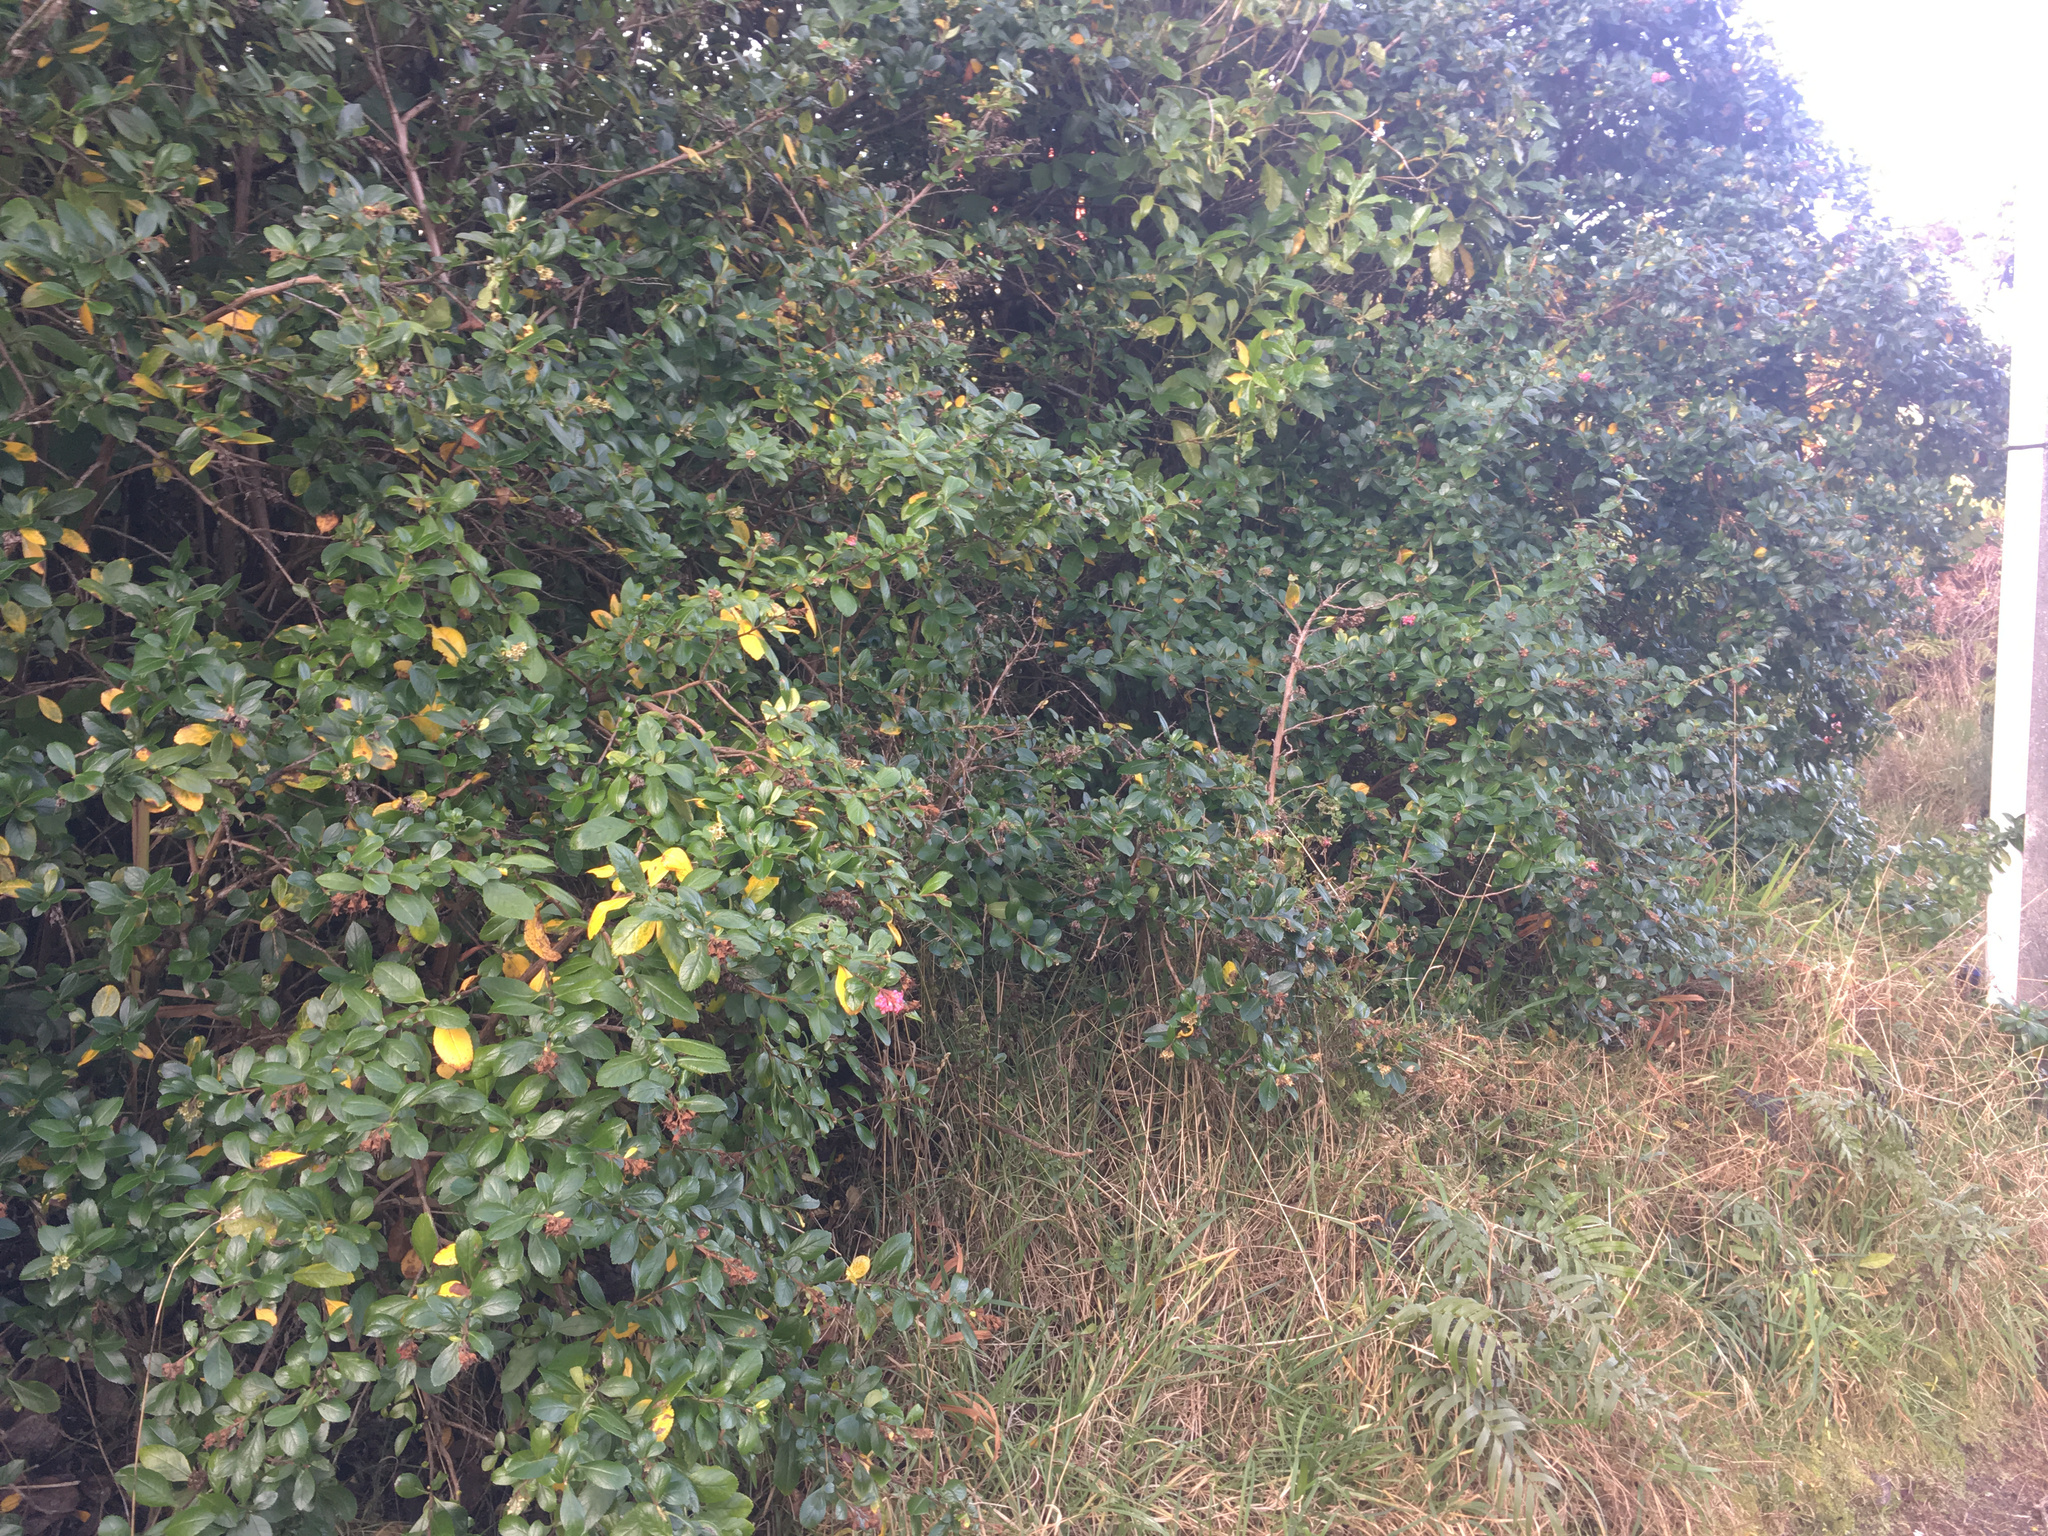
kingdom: Plantae
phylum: Tracheophyta
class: Magnoliopsida
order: Escalloniales
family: Escalloniaceae
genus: Escallonia
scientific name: Escallonia rubra
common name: Redclaws
